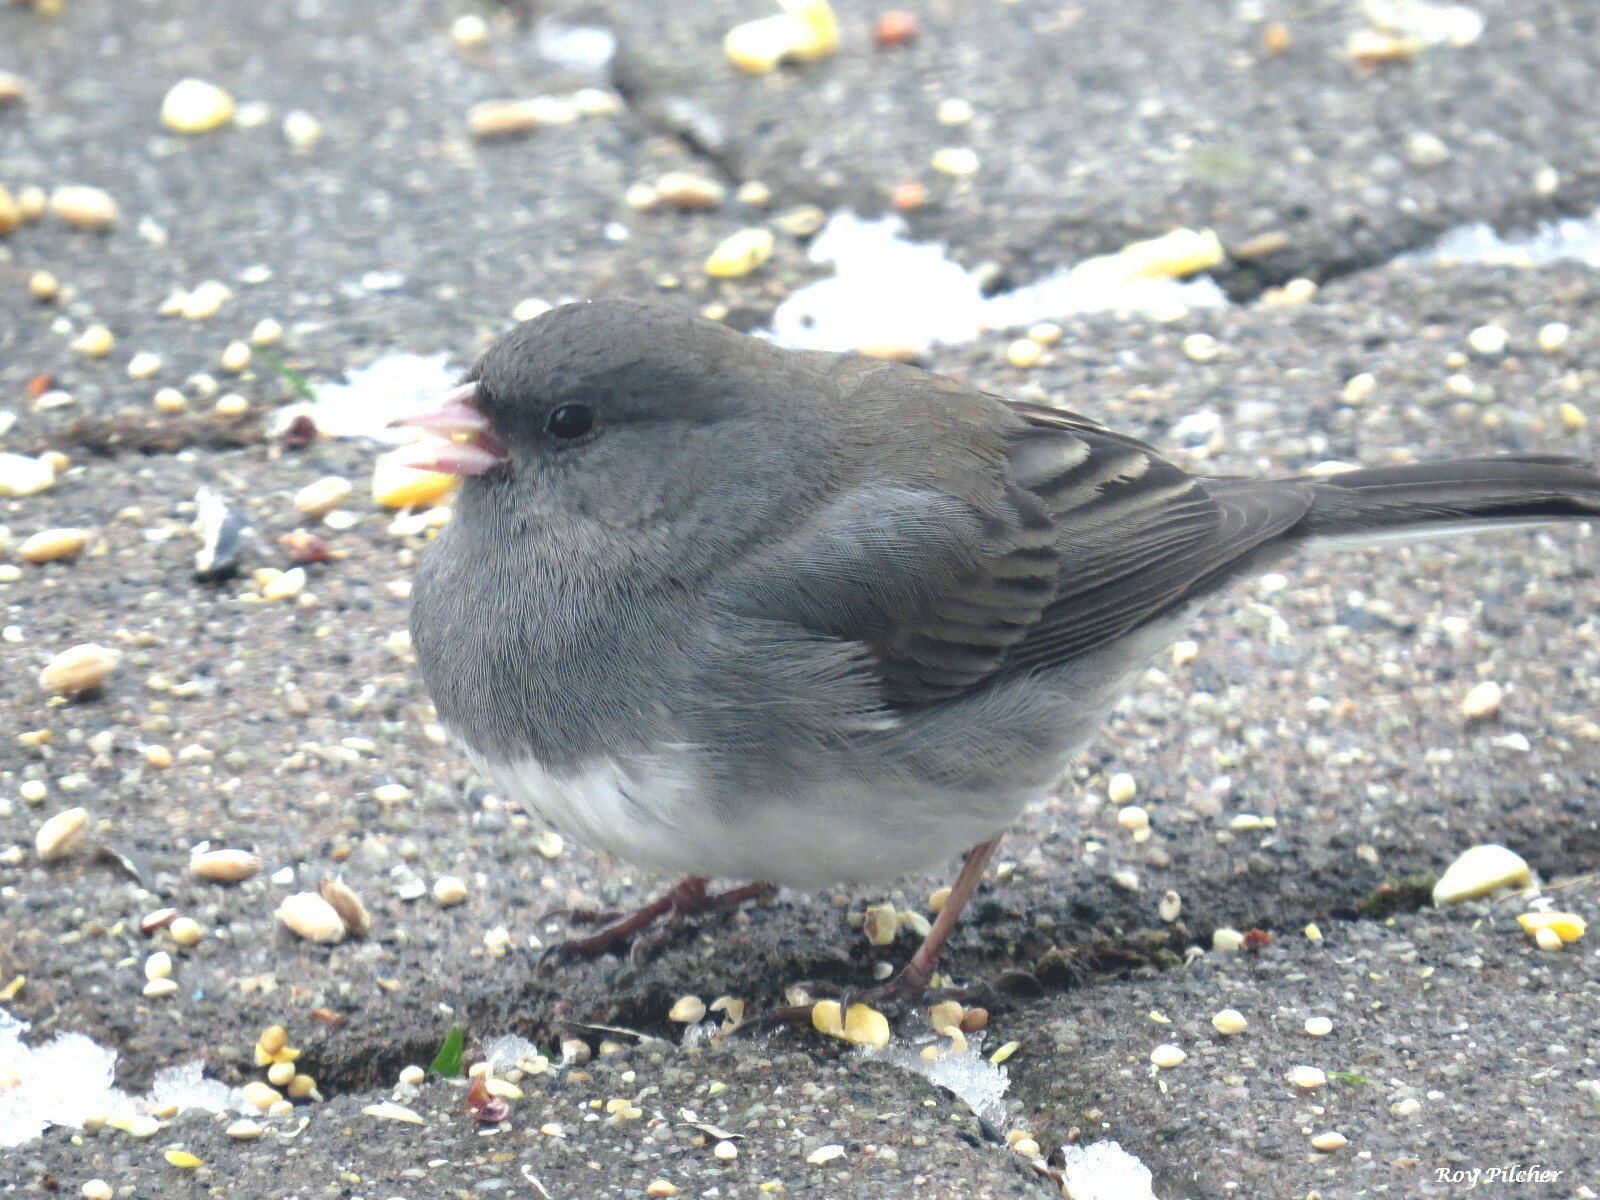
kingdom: Animalia
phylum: Chordata
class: Aves
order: Passeriformes
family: Passerellidae
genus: Junco
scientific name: Junco hyemalis
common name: Dark-eyed junco
